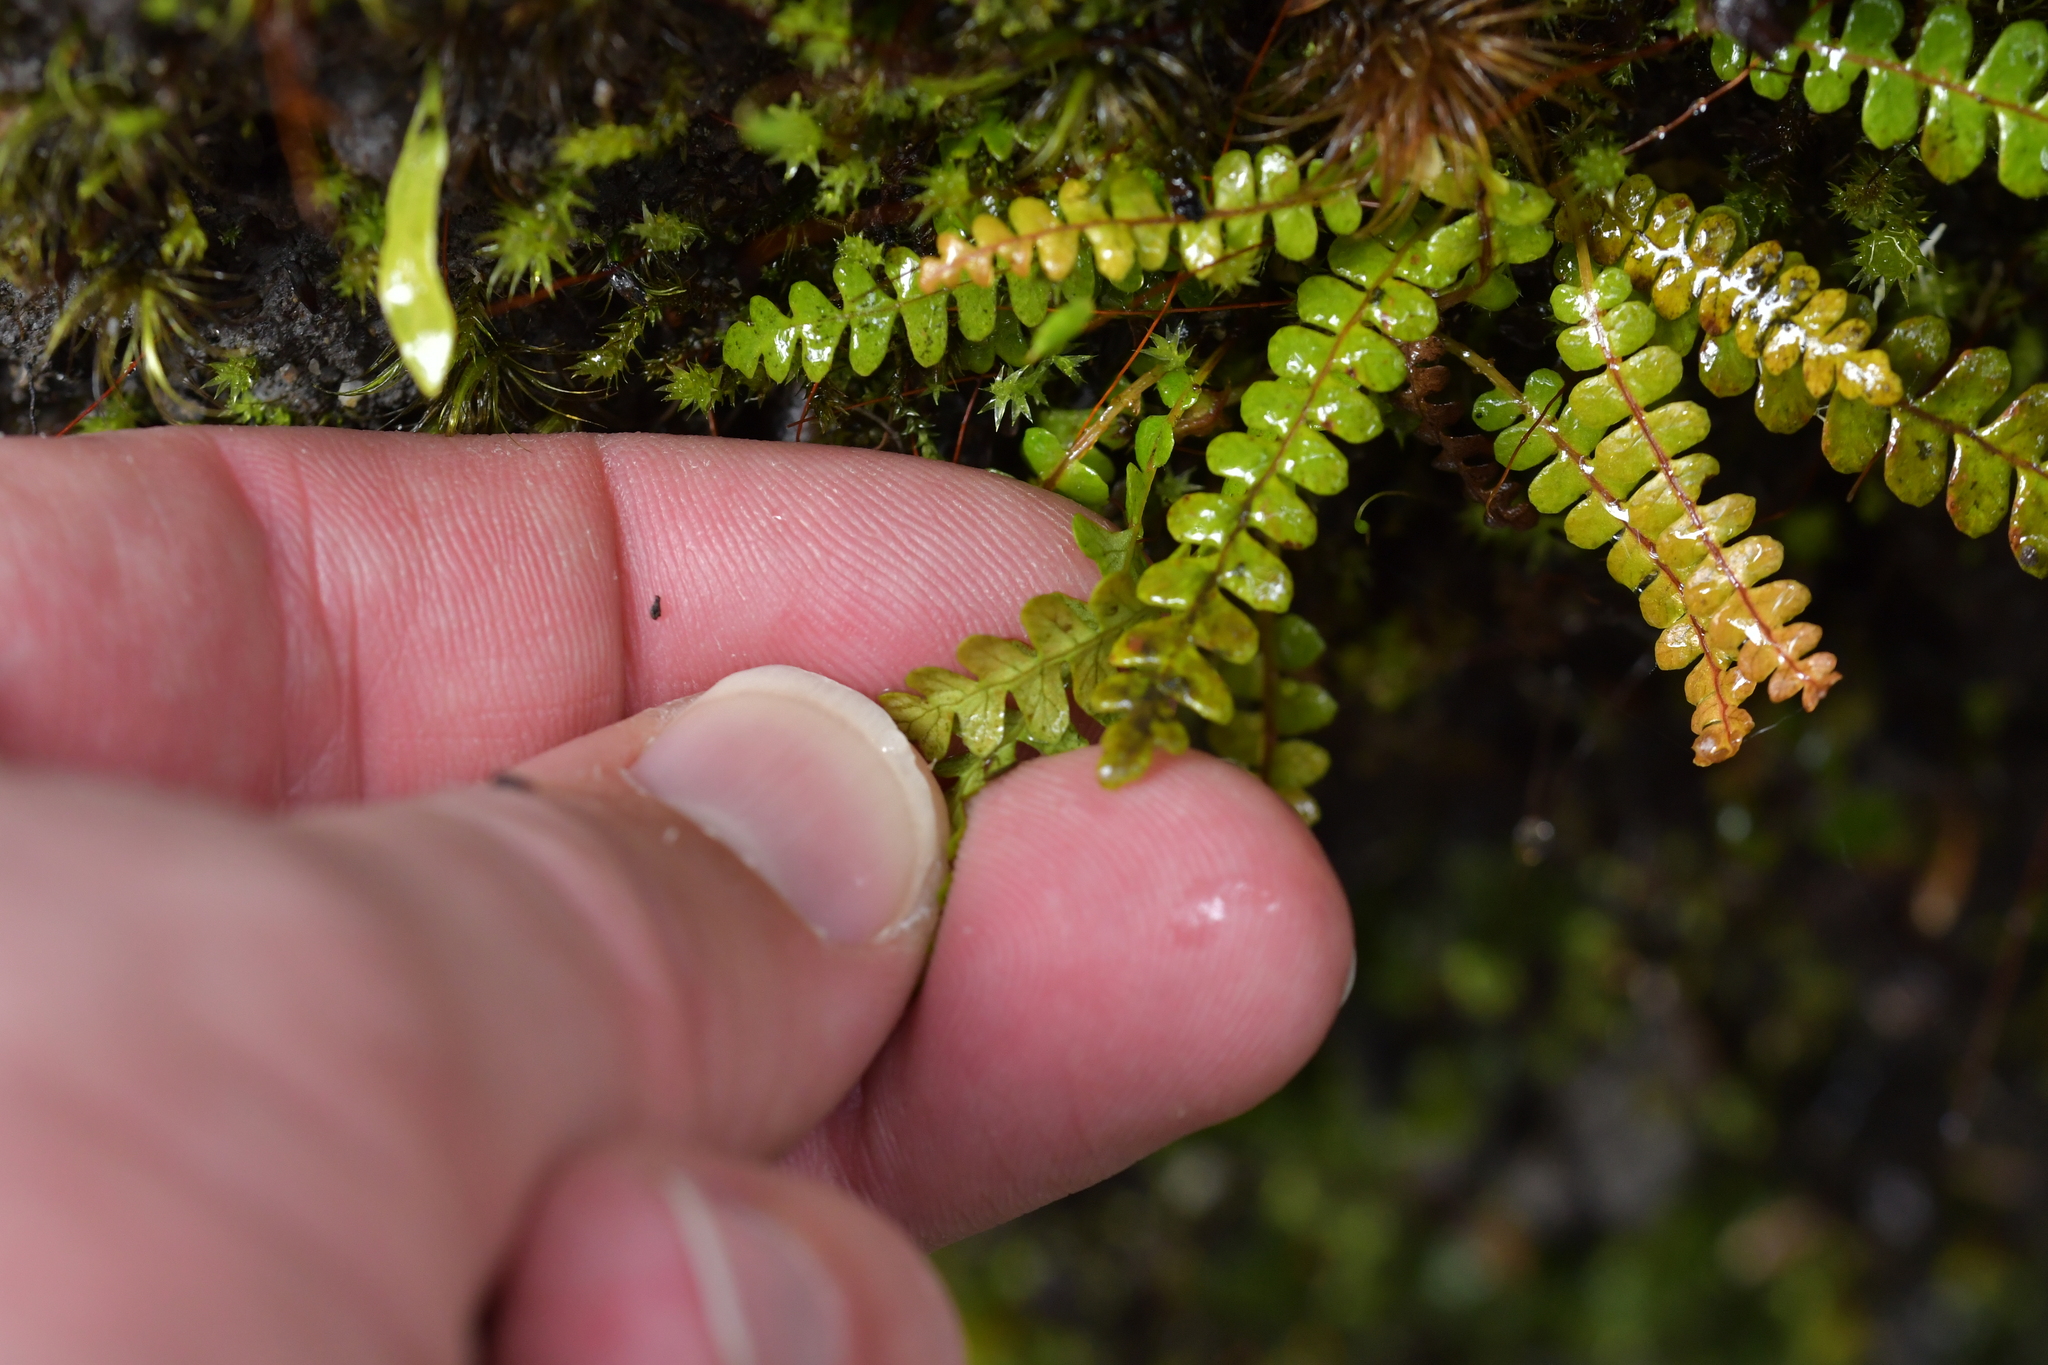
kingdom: Plantae
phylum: Tracheophyta
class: Polypodiopsida
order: Polypodiales
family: Blechnaceae
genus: Austroblechnum
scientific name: Austroblechnum penna-marina
